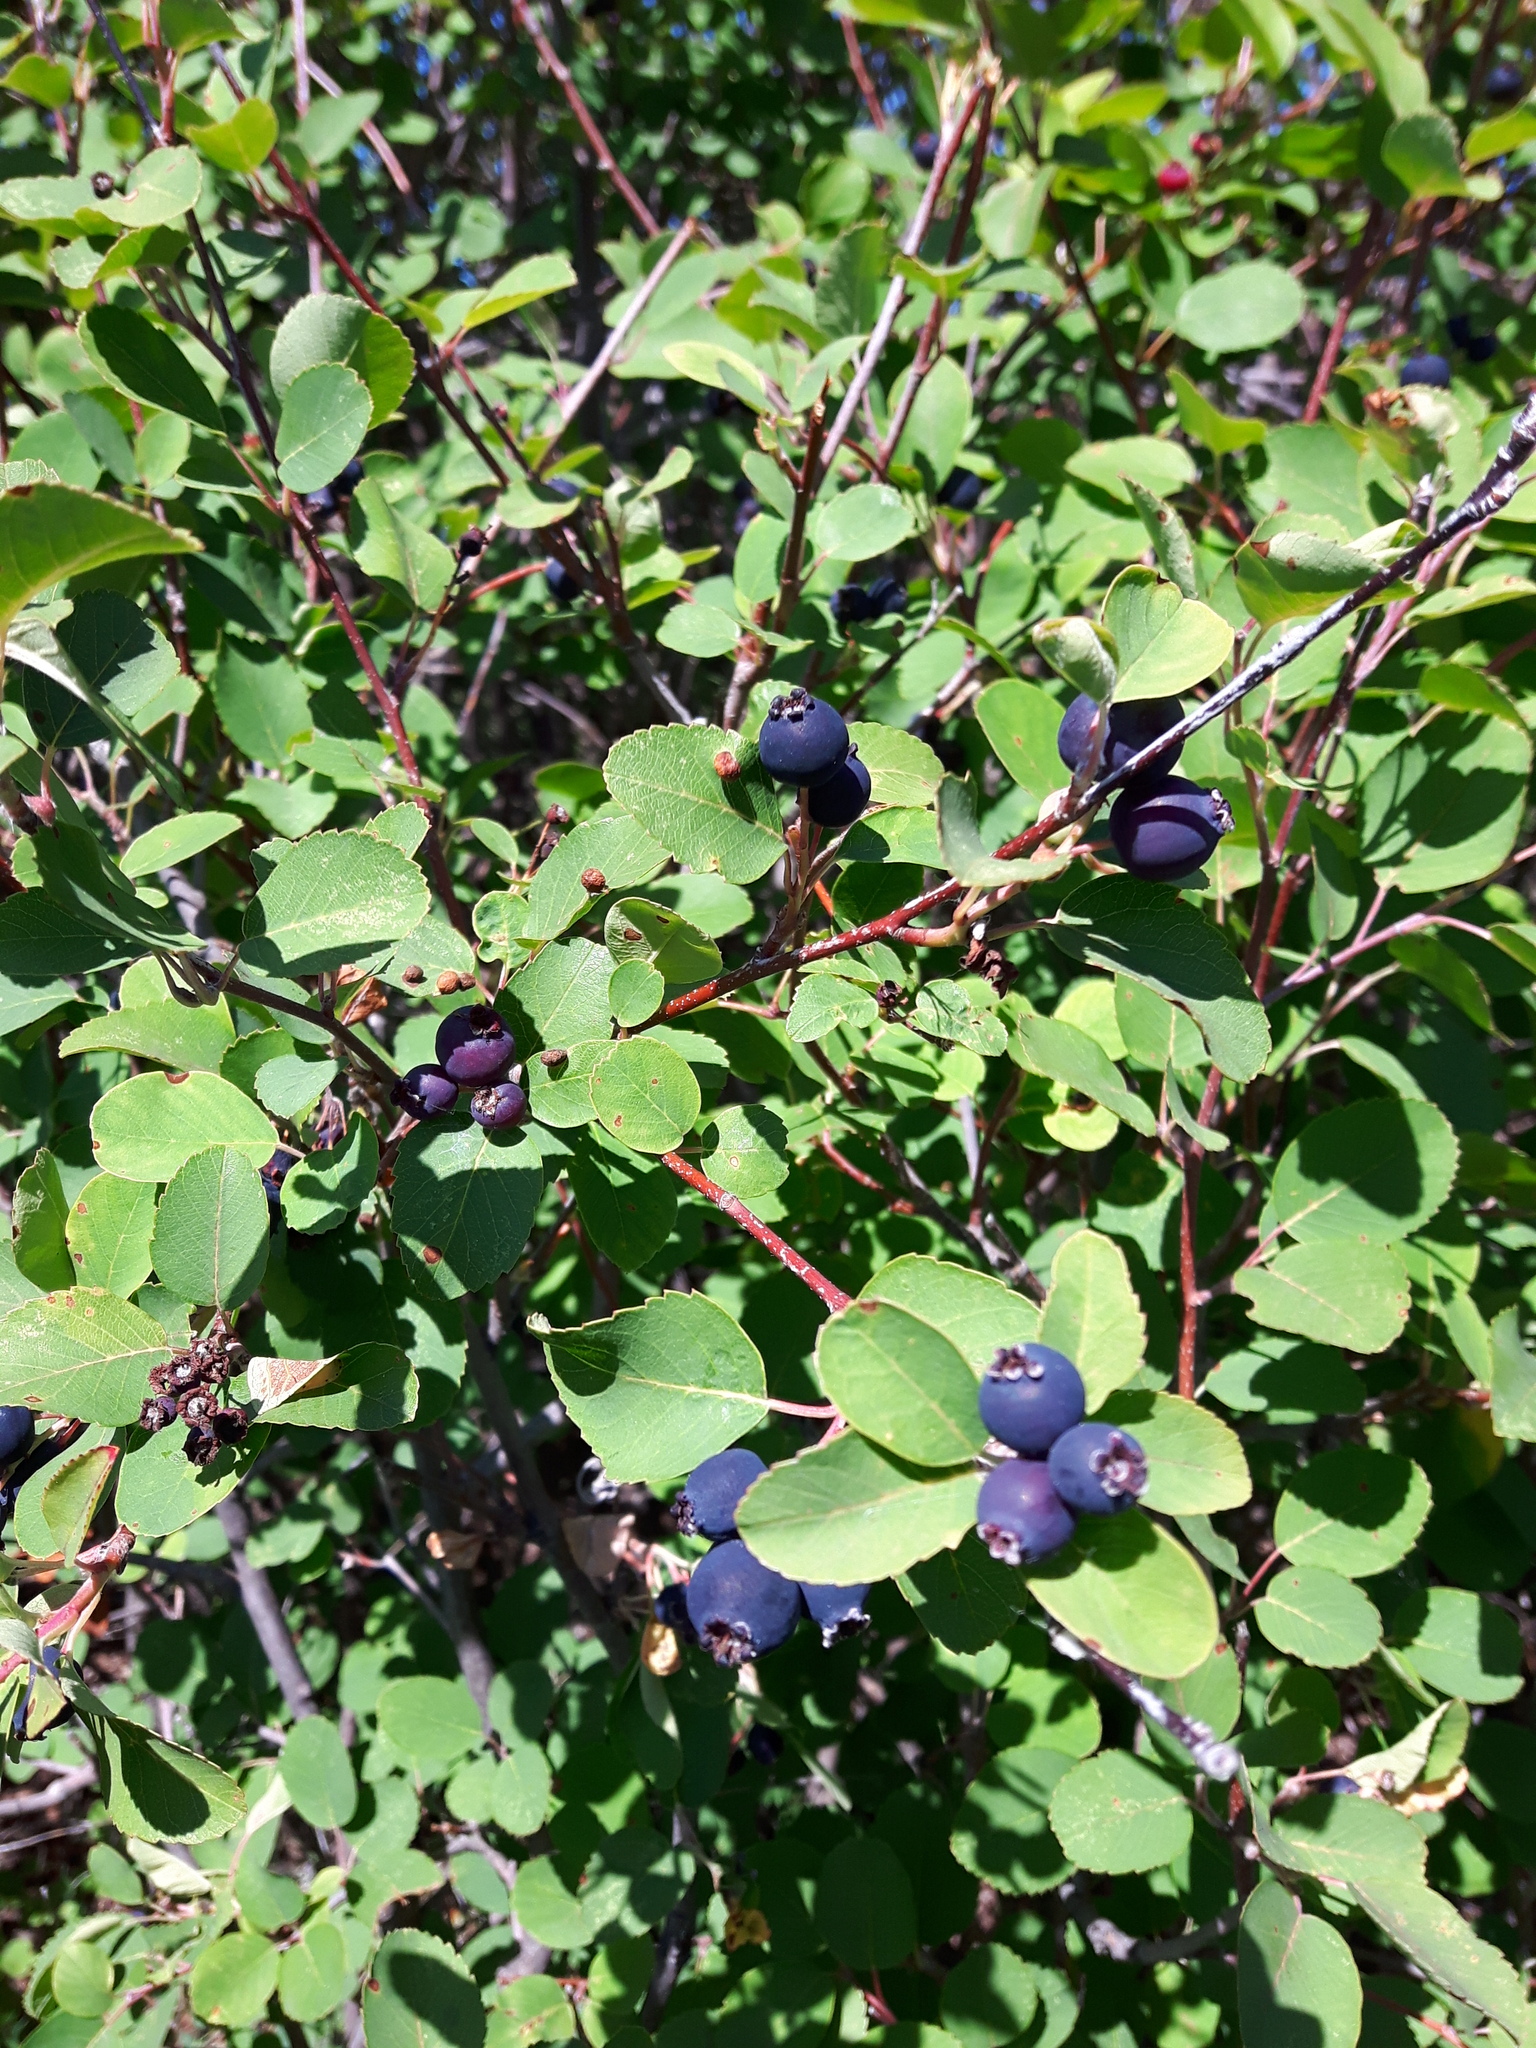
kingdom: Plantae
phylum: Tracheophyta
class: Magnoliopsida
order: Rosales
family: Rosaceae
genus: Amelanchier
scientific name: Amelanchier alnifolia
